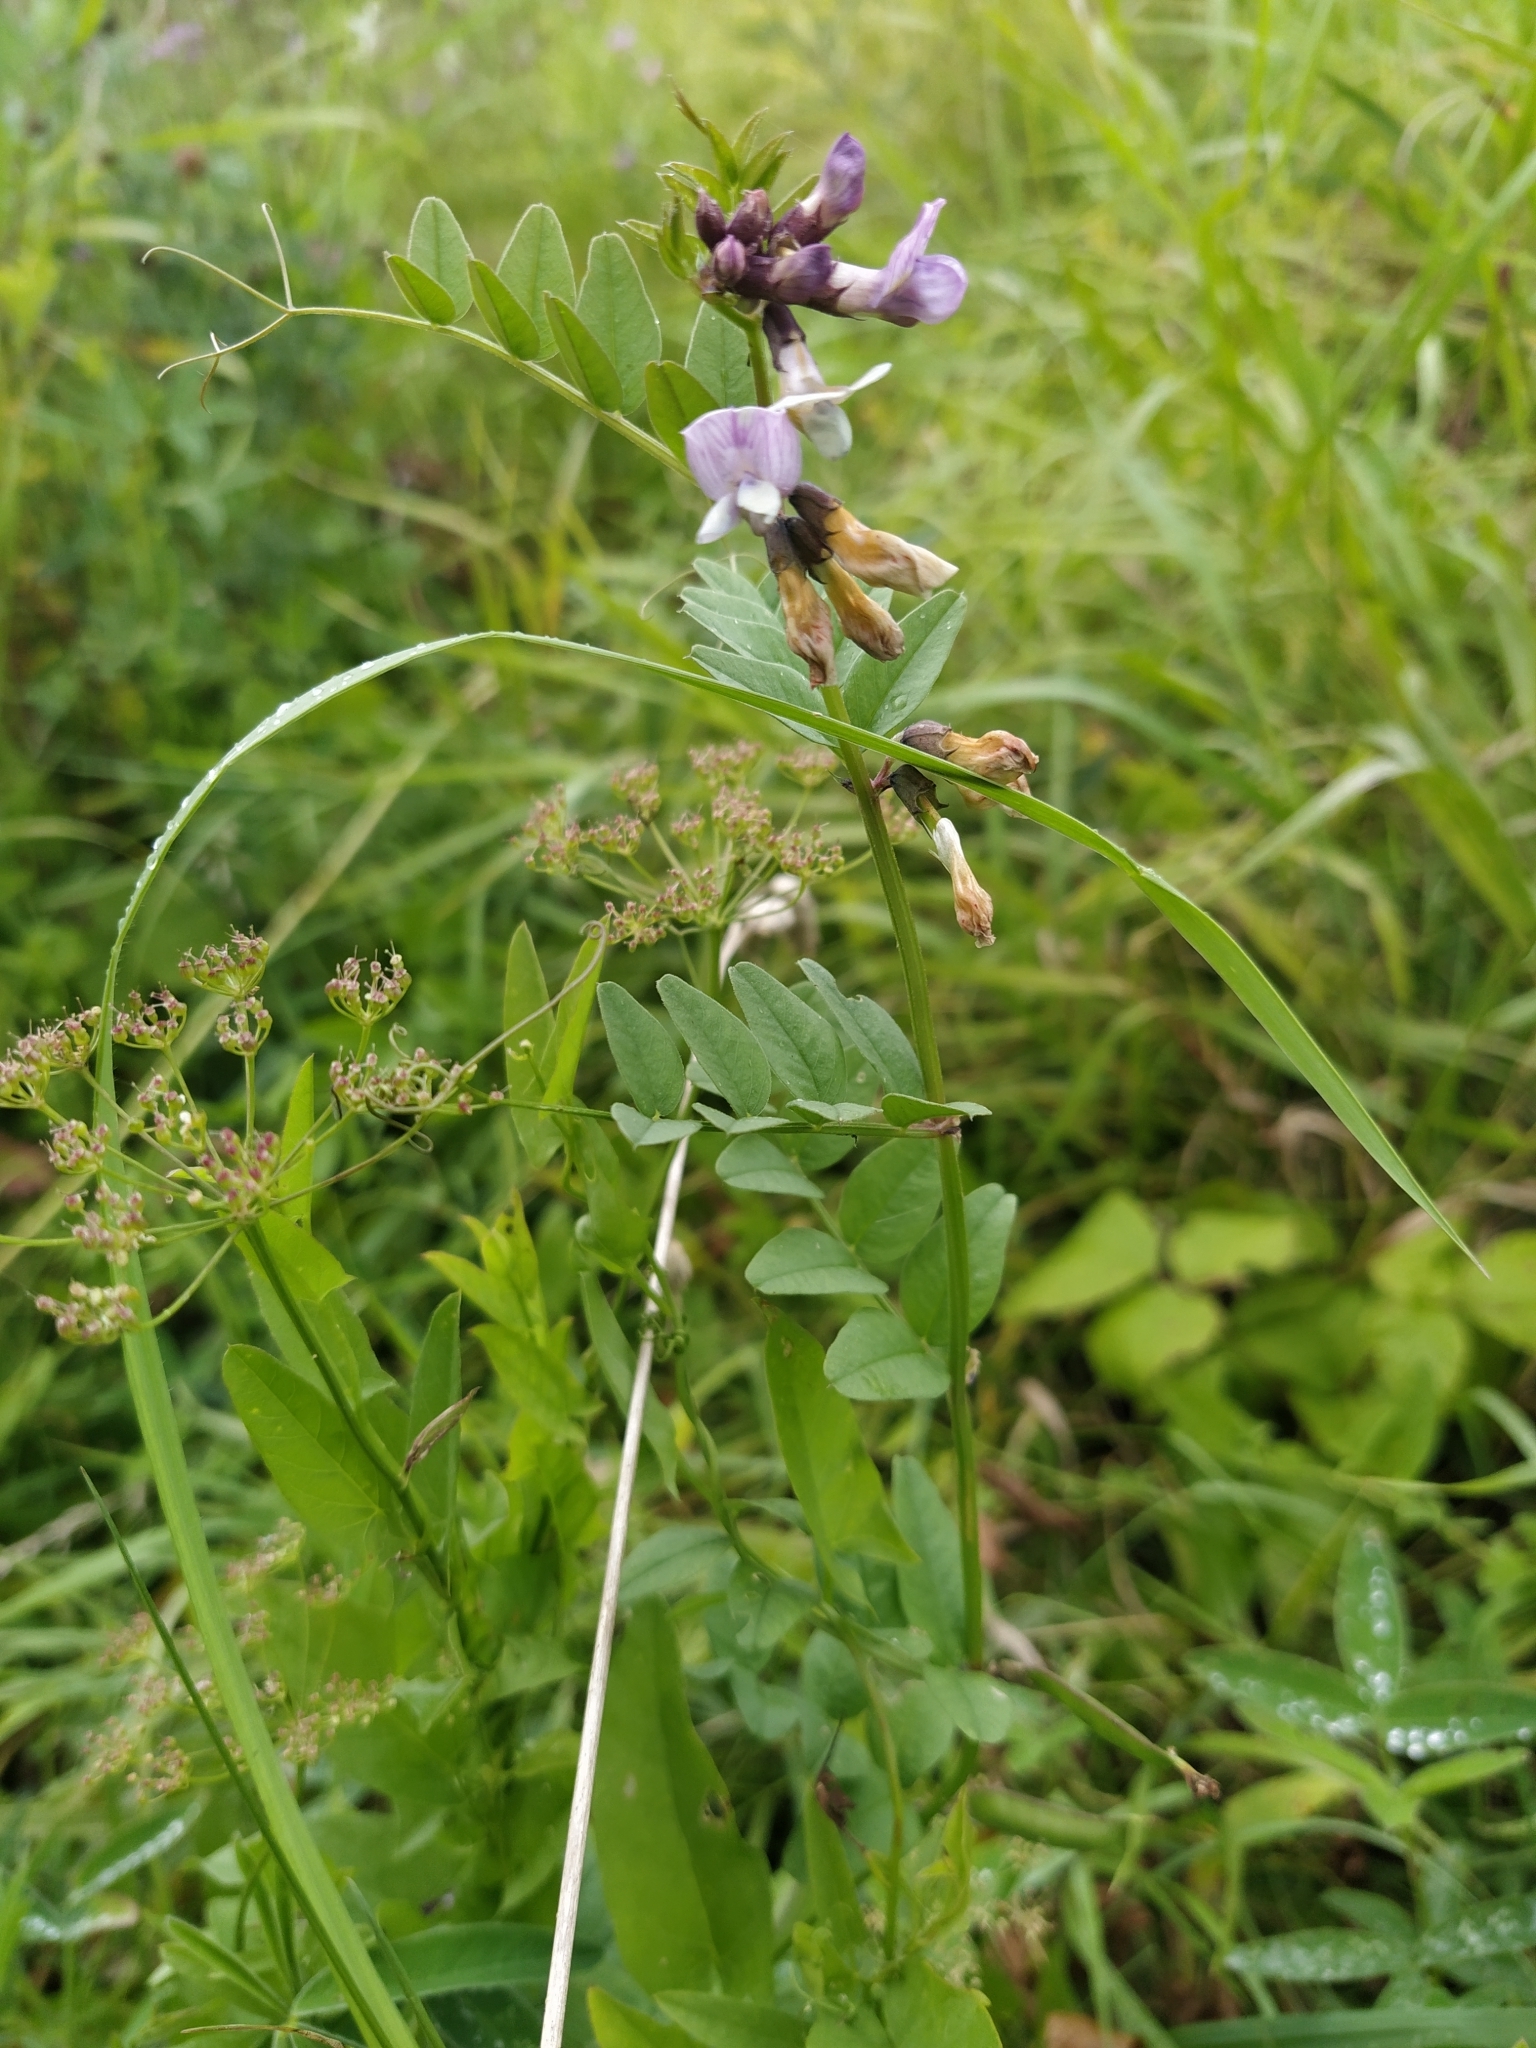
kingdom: Plantae
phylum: Tracheophyta
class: Magnoliopsida
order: Fabales
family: Fabaceae
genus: Vicia
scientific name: Vicia sepium
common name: Bush vetch
